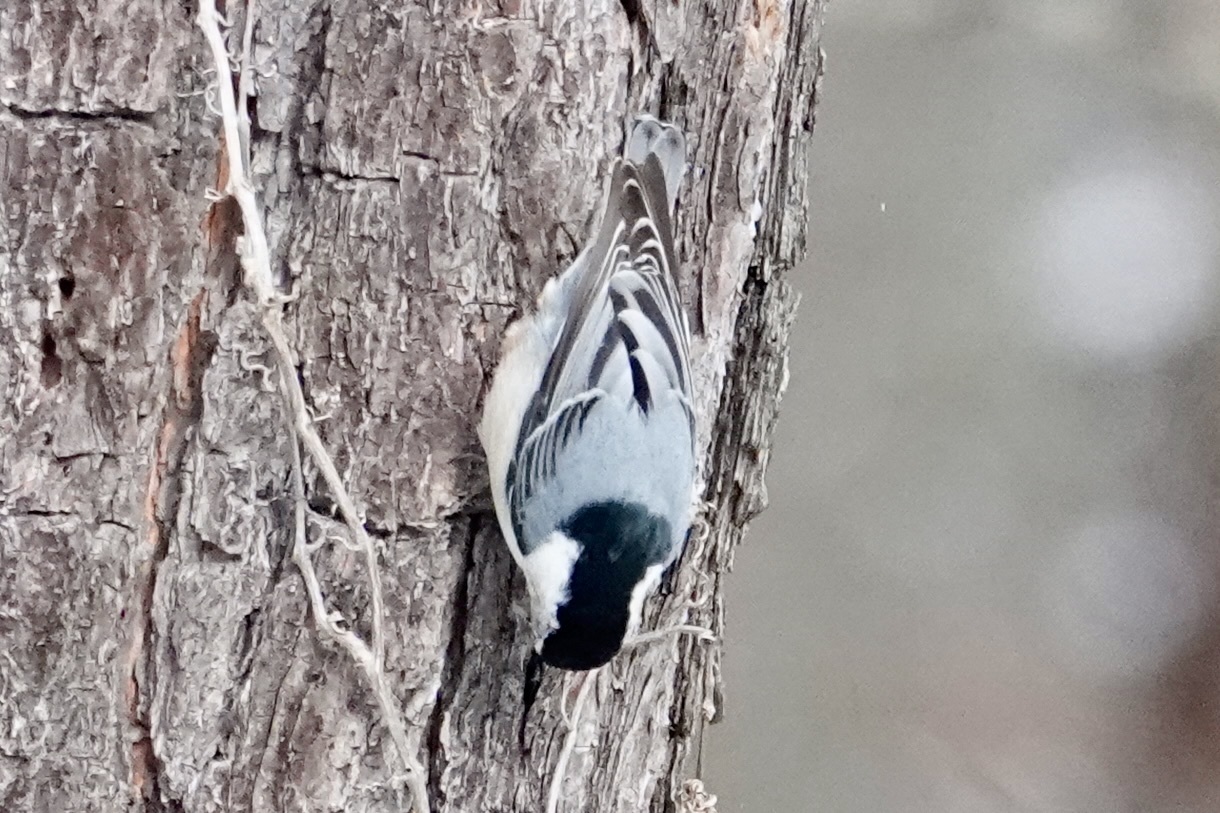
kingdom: Animalia
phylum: Chordata
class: Aves
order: Passeriformes
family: Sittidae
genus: Sitta
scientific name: Sitta carolinensis
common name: White-breasted nuthatch
